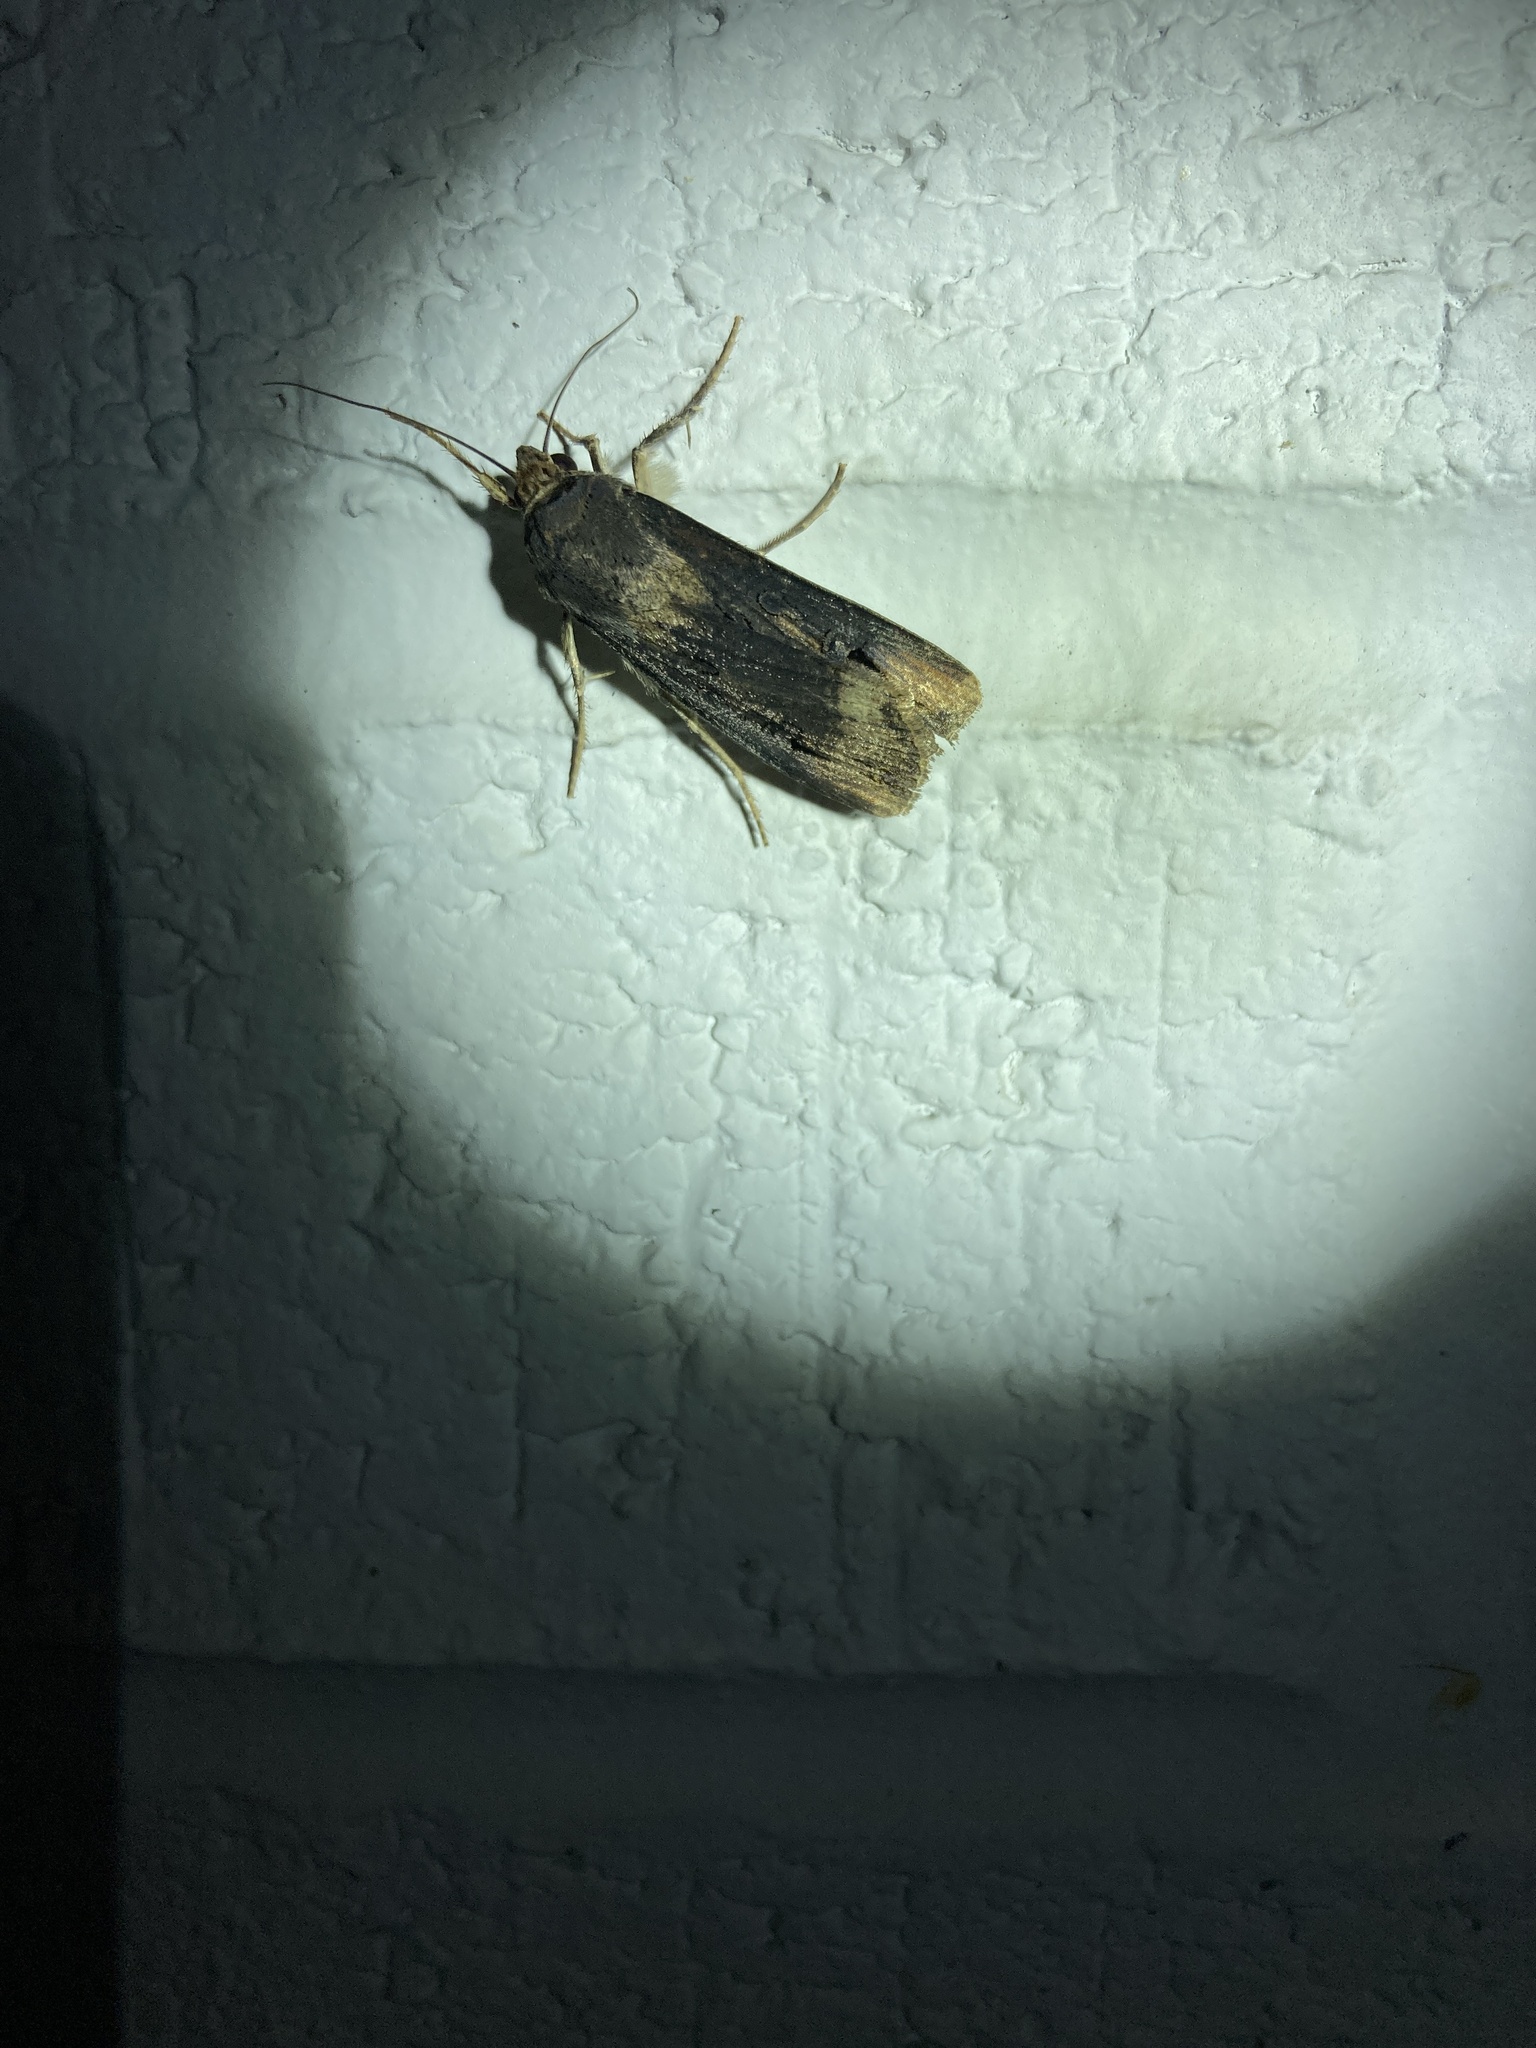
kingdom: Animalia
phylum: Arthropoda
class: Insecta
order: Lepidoptera
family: Noctuidae
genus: Agrotis
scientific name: Agrotis ipsilon
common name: Dark sword-grass
